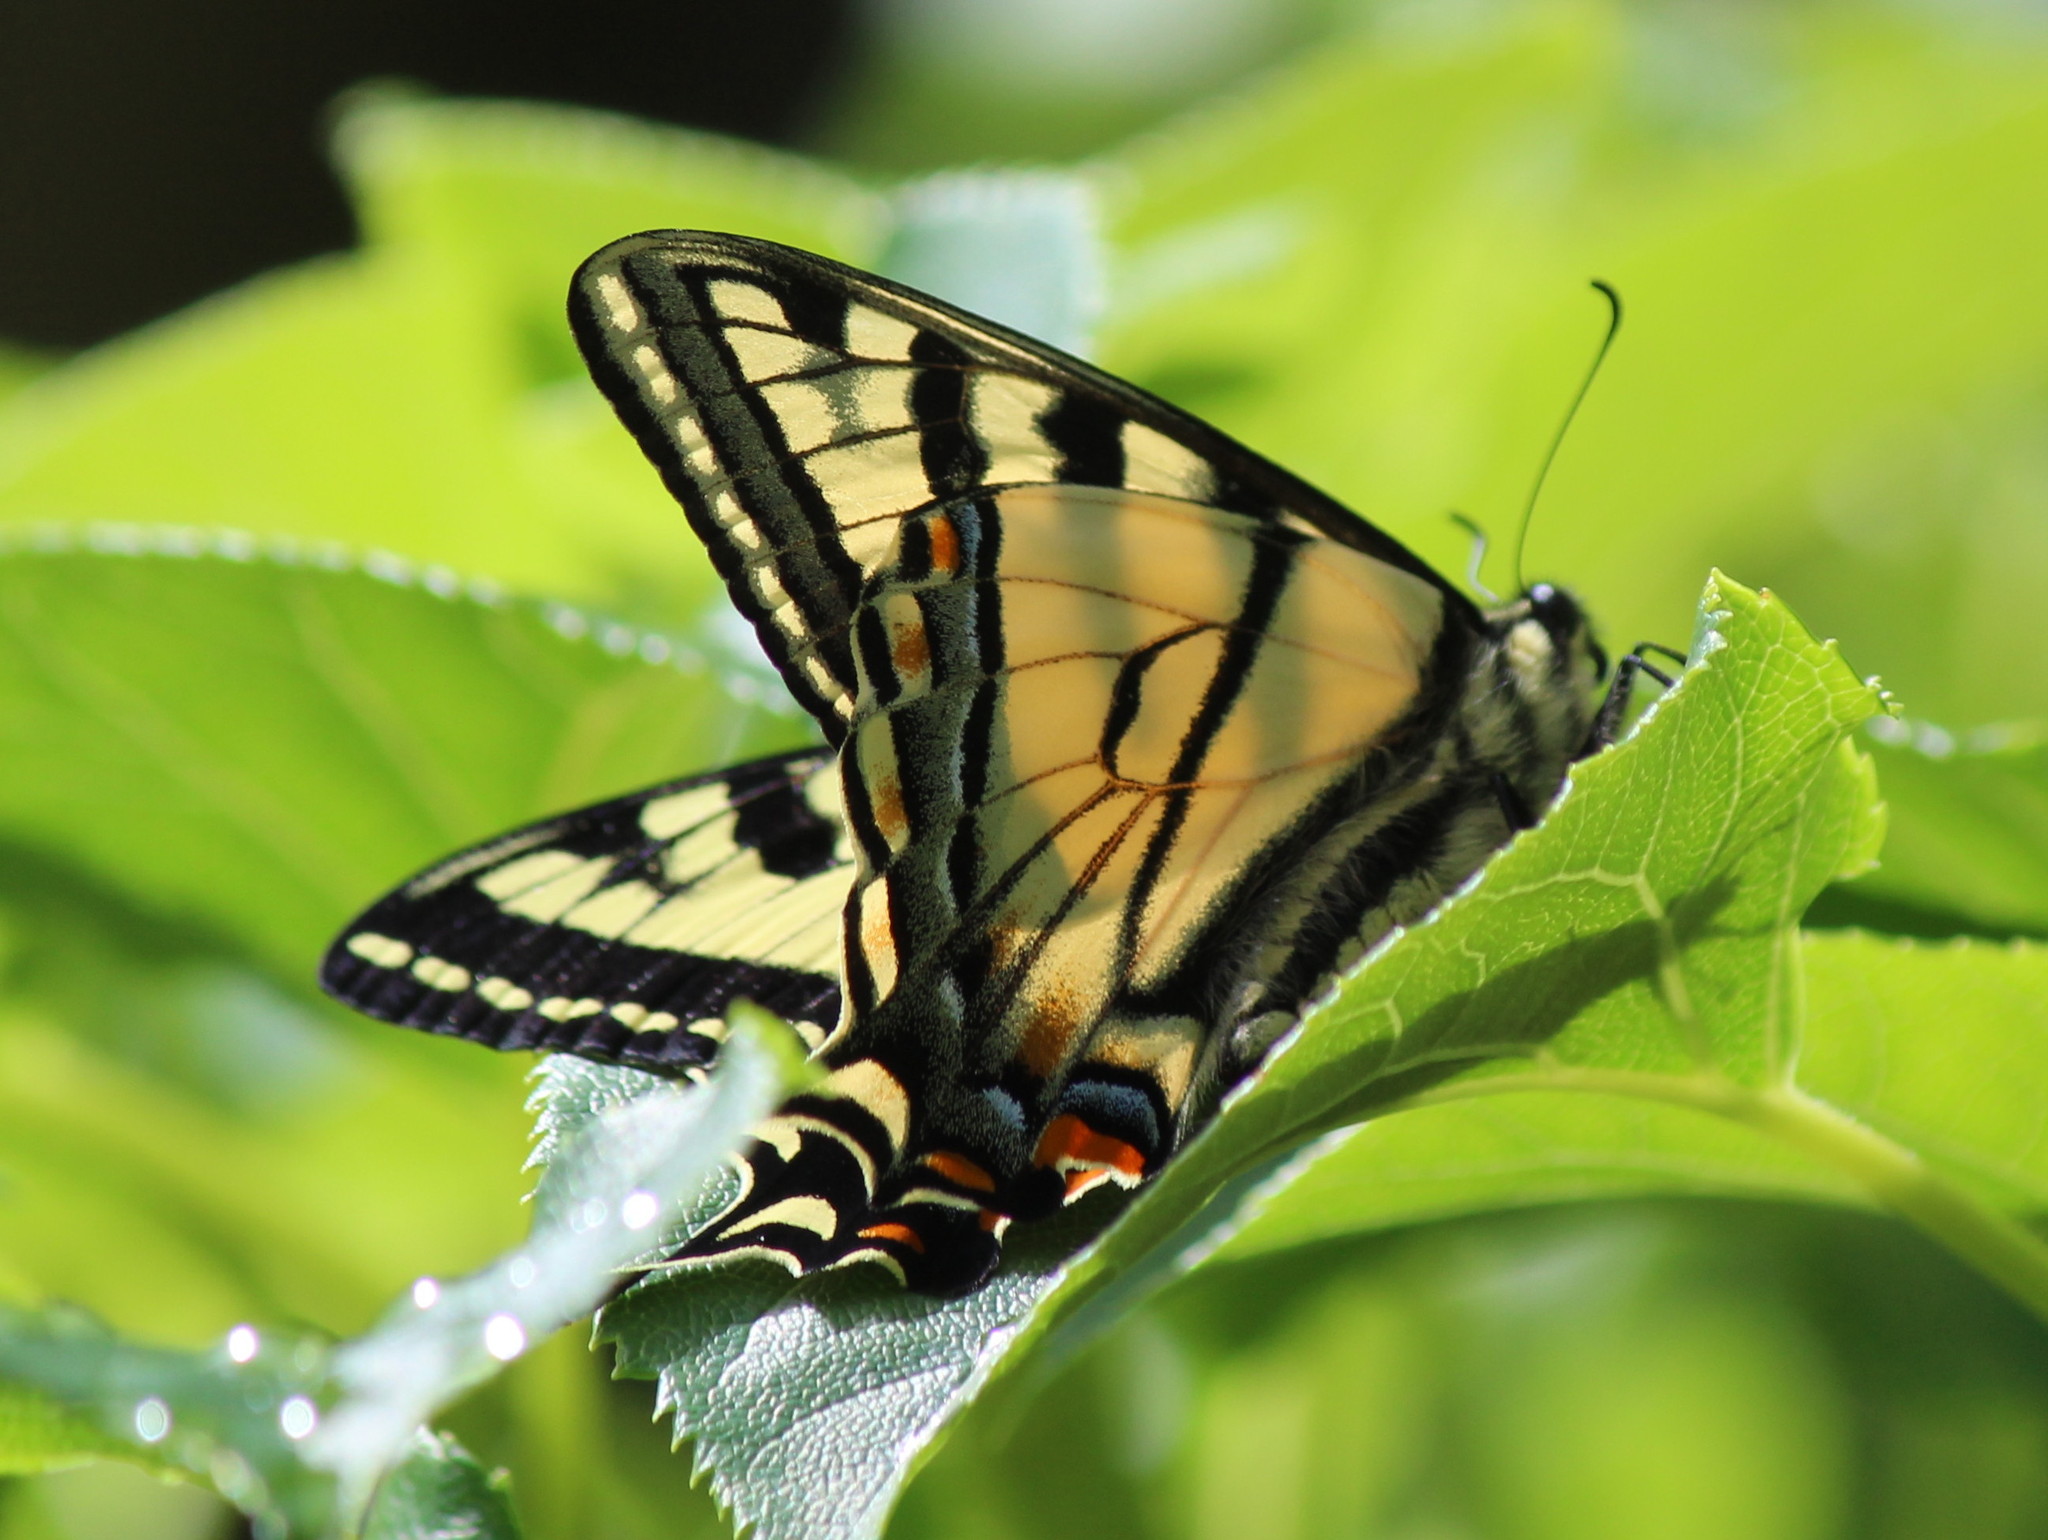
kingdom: Animalia
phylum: Arthropoda
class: Insecta
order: Lepidoptera
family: Papilionidae
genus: Papilio
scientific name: Papilio canadensis
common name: Canadian tiger swallowtail
